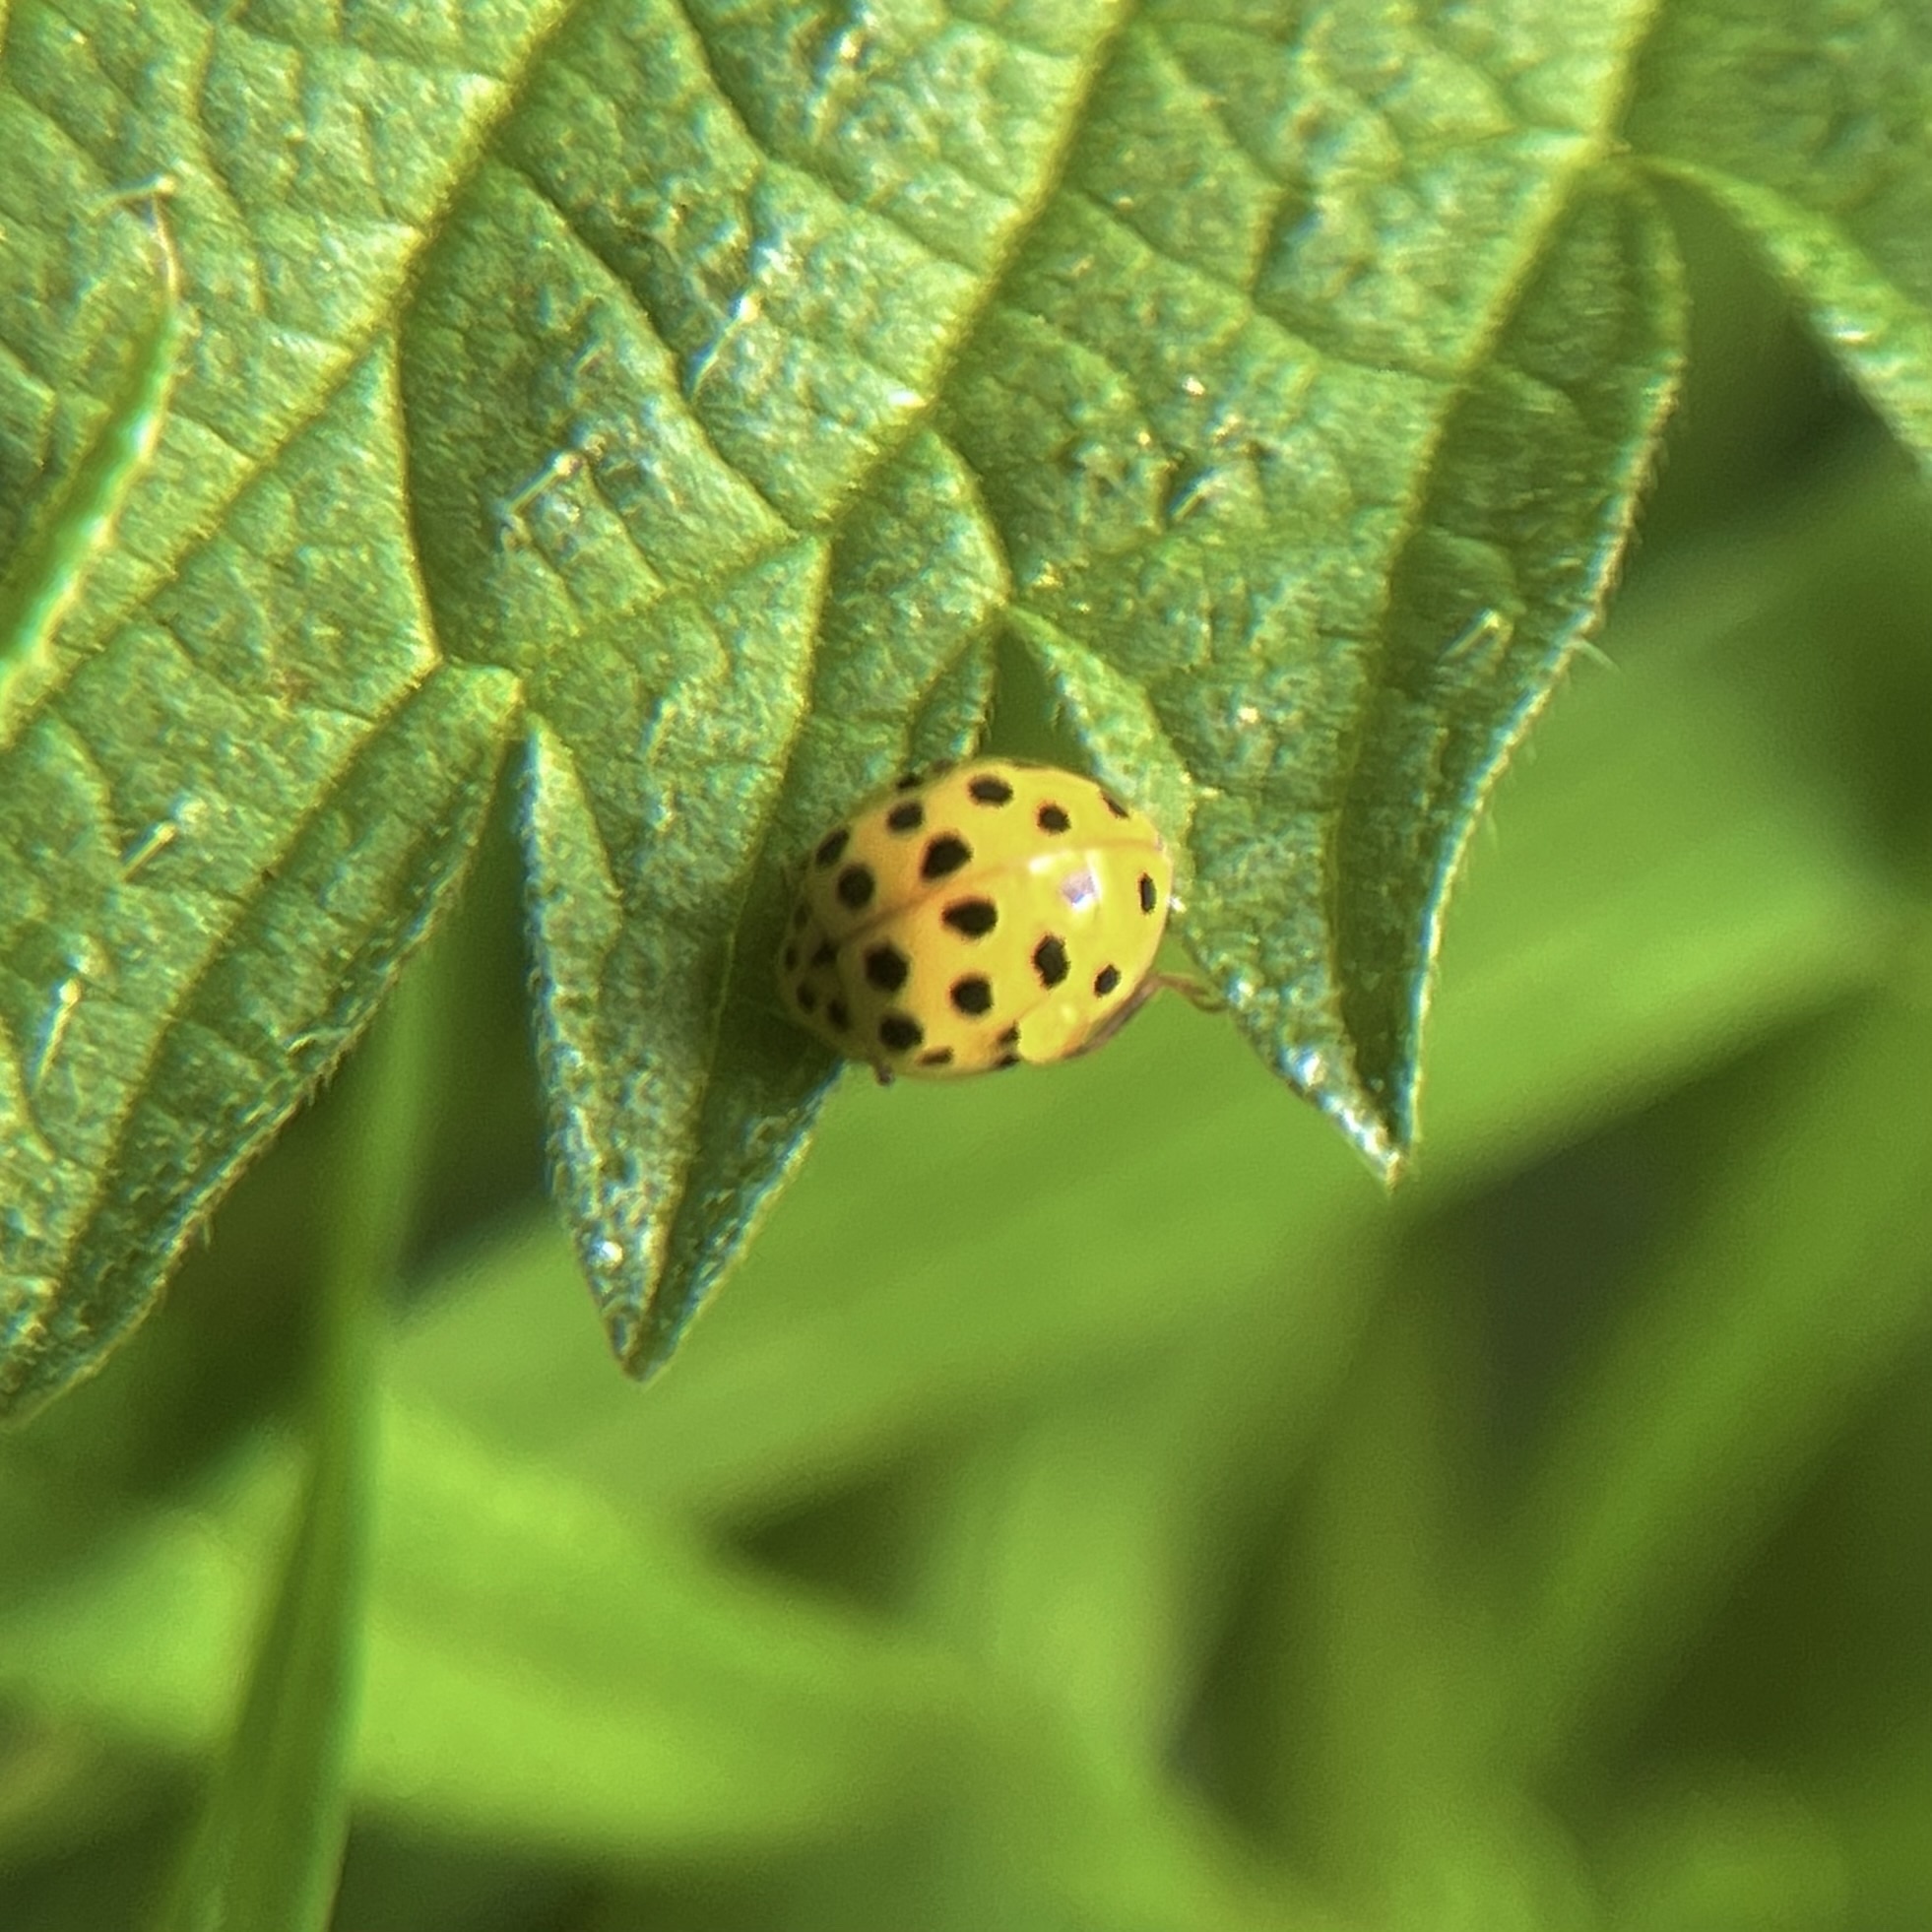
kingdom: Animalia
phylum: Arthropoda
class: Insecta
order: Coleoptera
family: Coccinellidae
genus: Psyllobora
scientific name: Psyllobora vigintiduopunctata
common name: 22-spot ladybird
